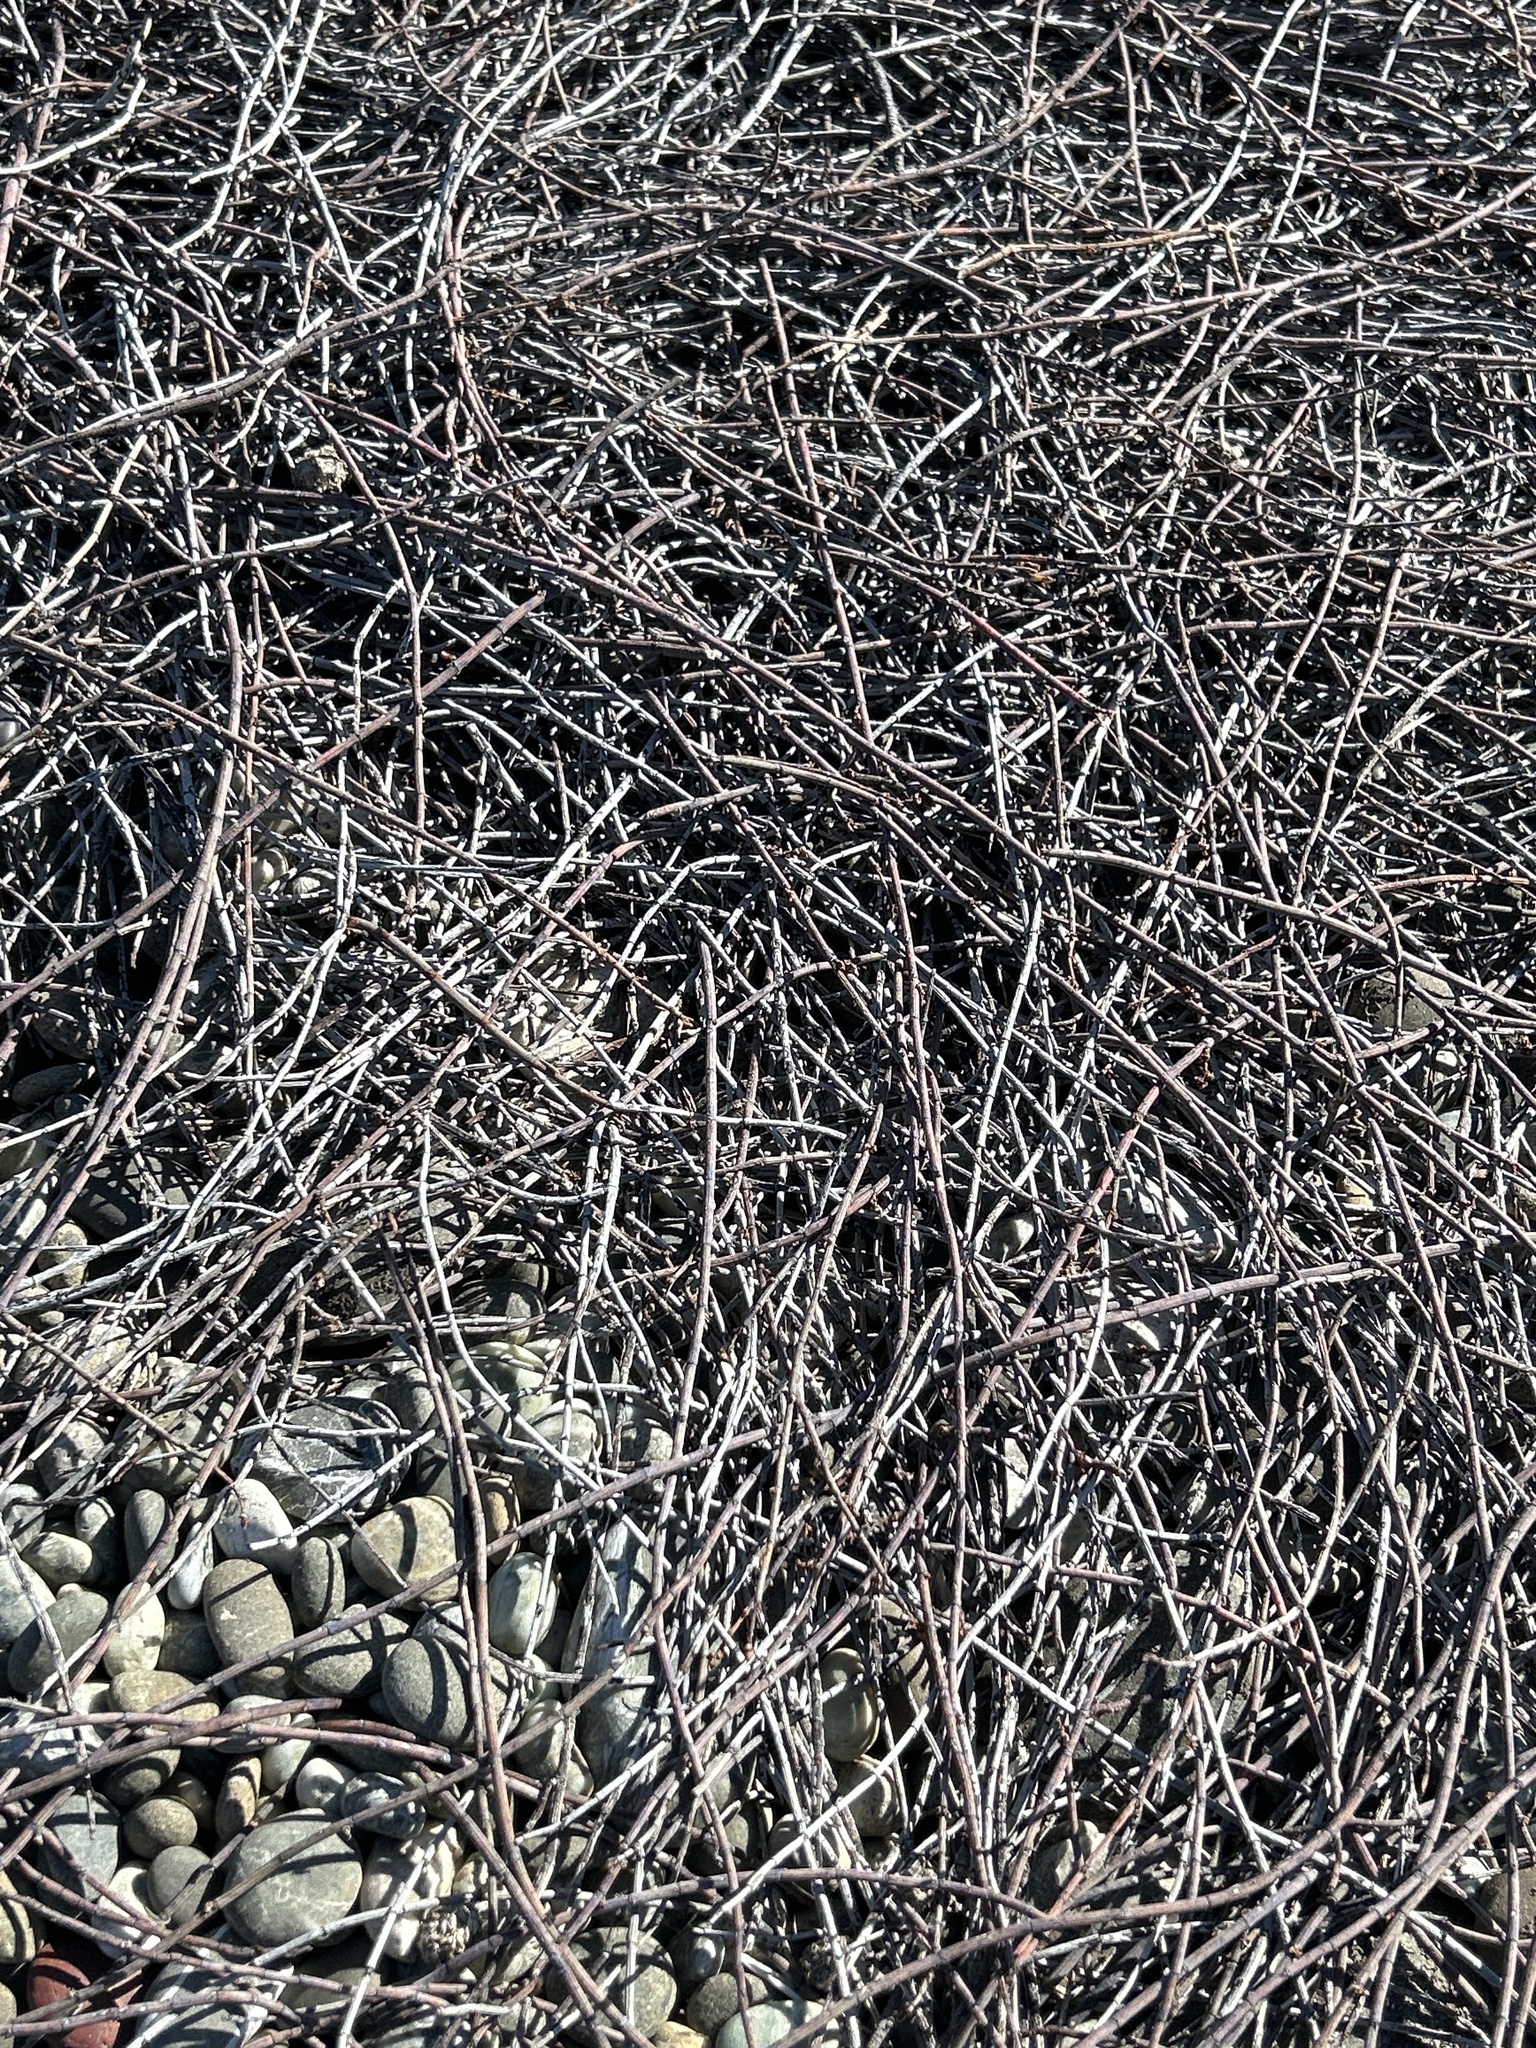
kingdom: Plantae
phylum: Tracheophyta
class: Magnoliopsida
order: Caryophyllales
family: Polygonaceae
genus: Muehlenbeckia
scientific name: Muehlenbeckia ephedroides
